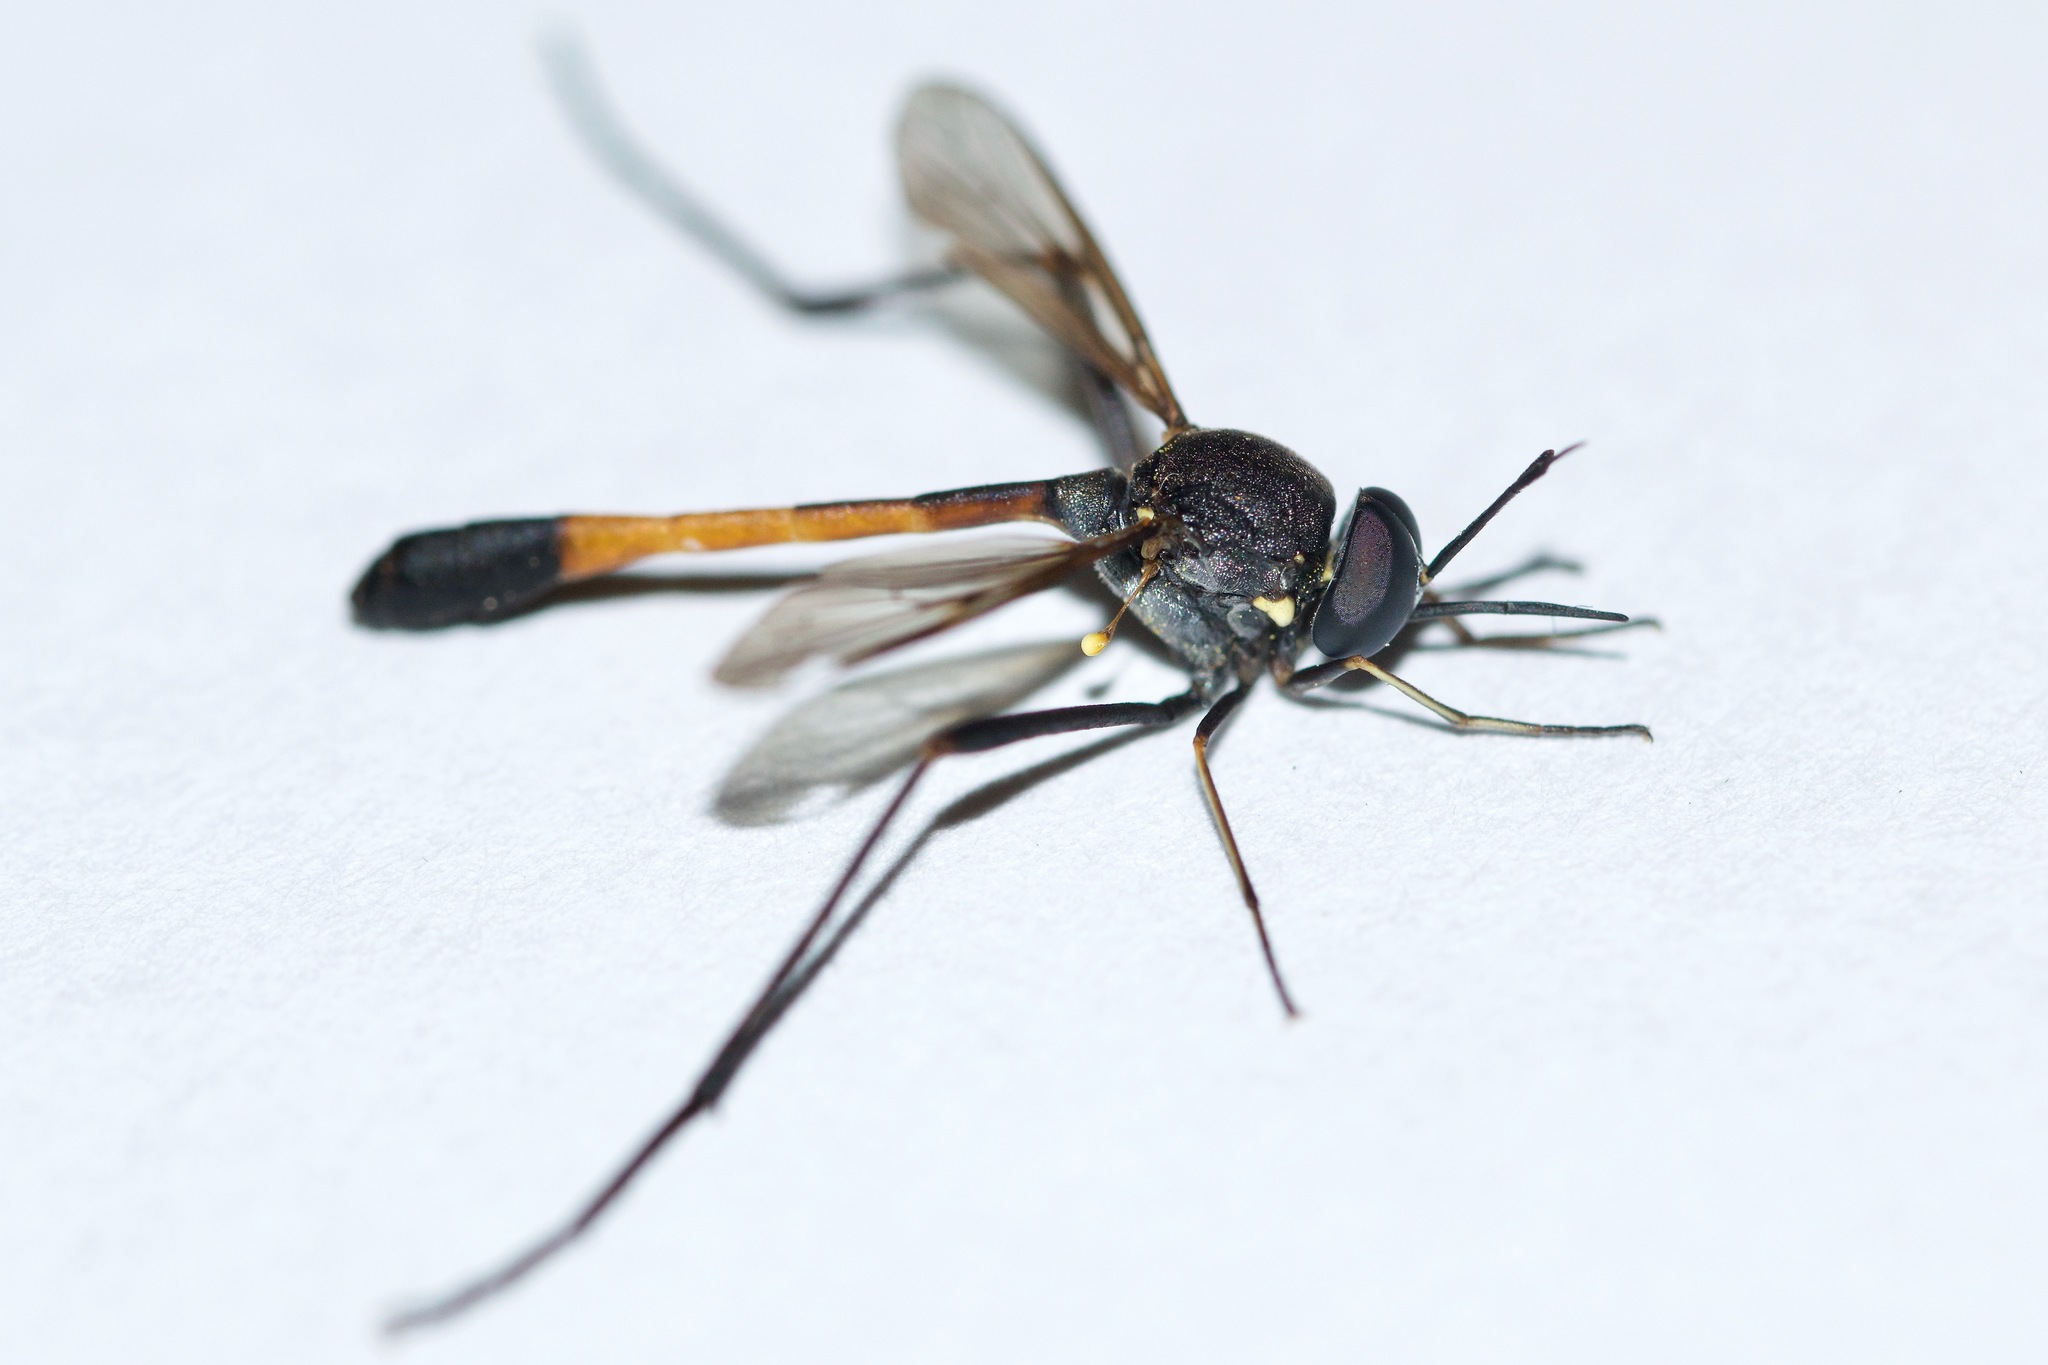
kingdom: Animalia
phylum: Arthropoda
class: Insecta
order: Diptera
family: Bombyliidae
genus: Systropus
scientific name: Systropus macer
